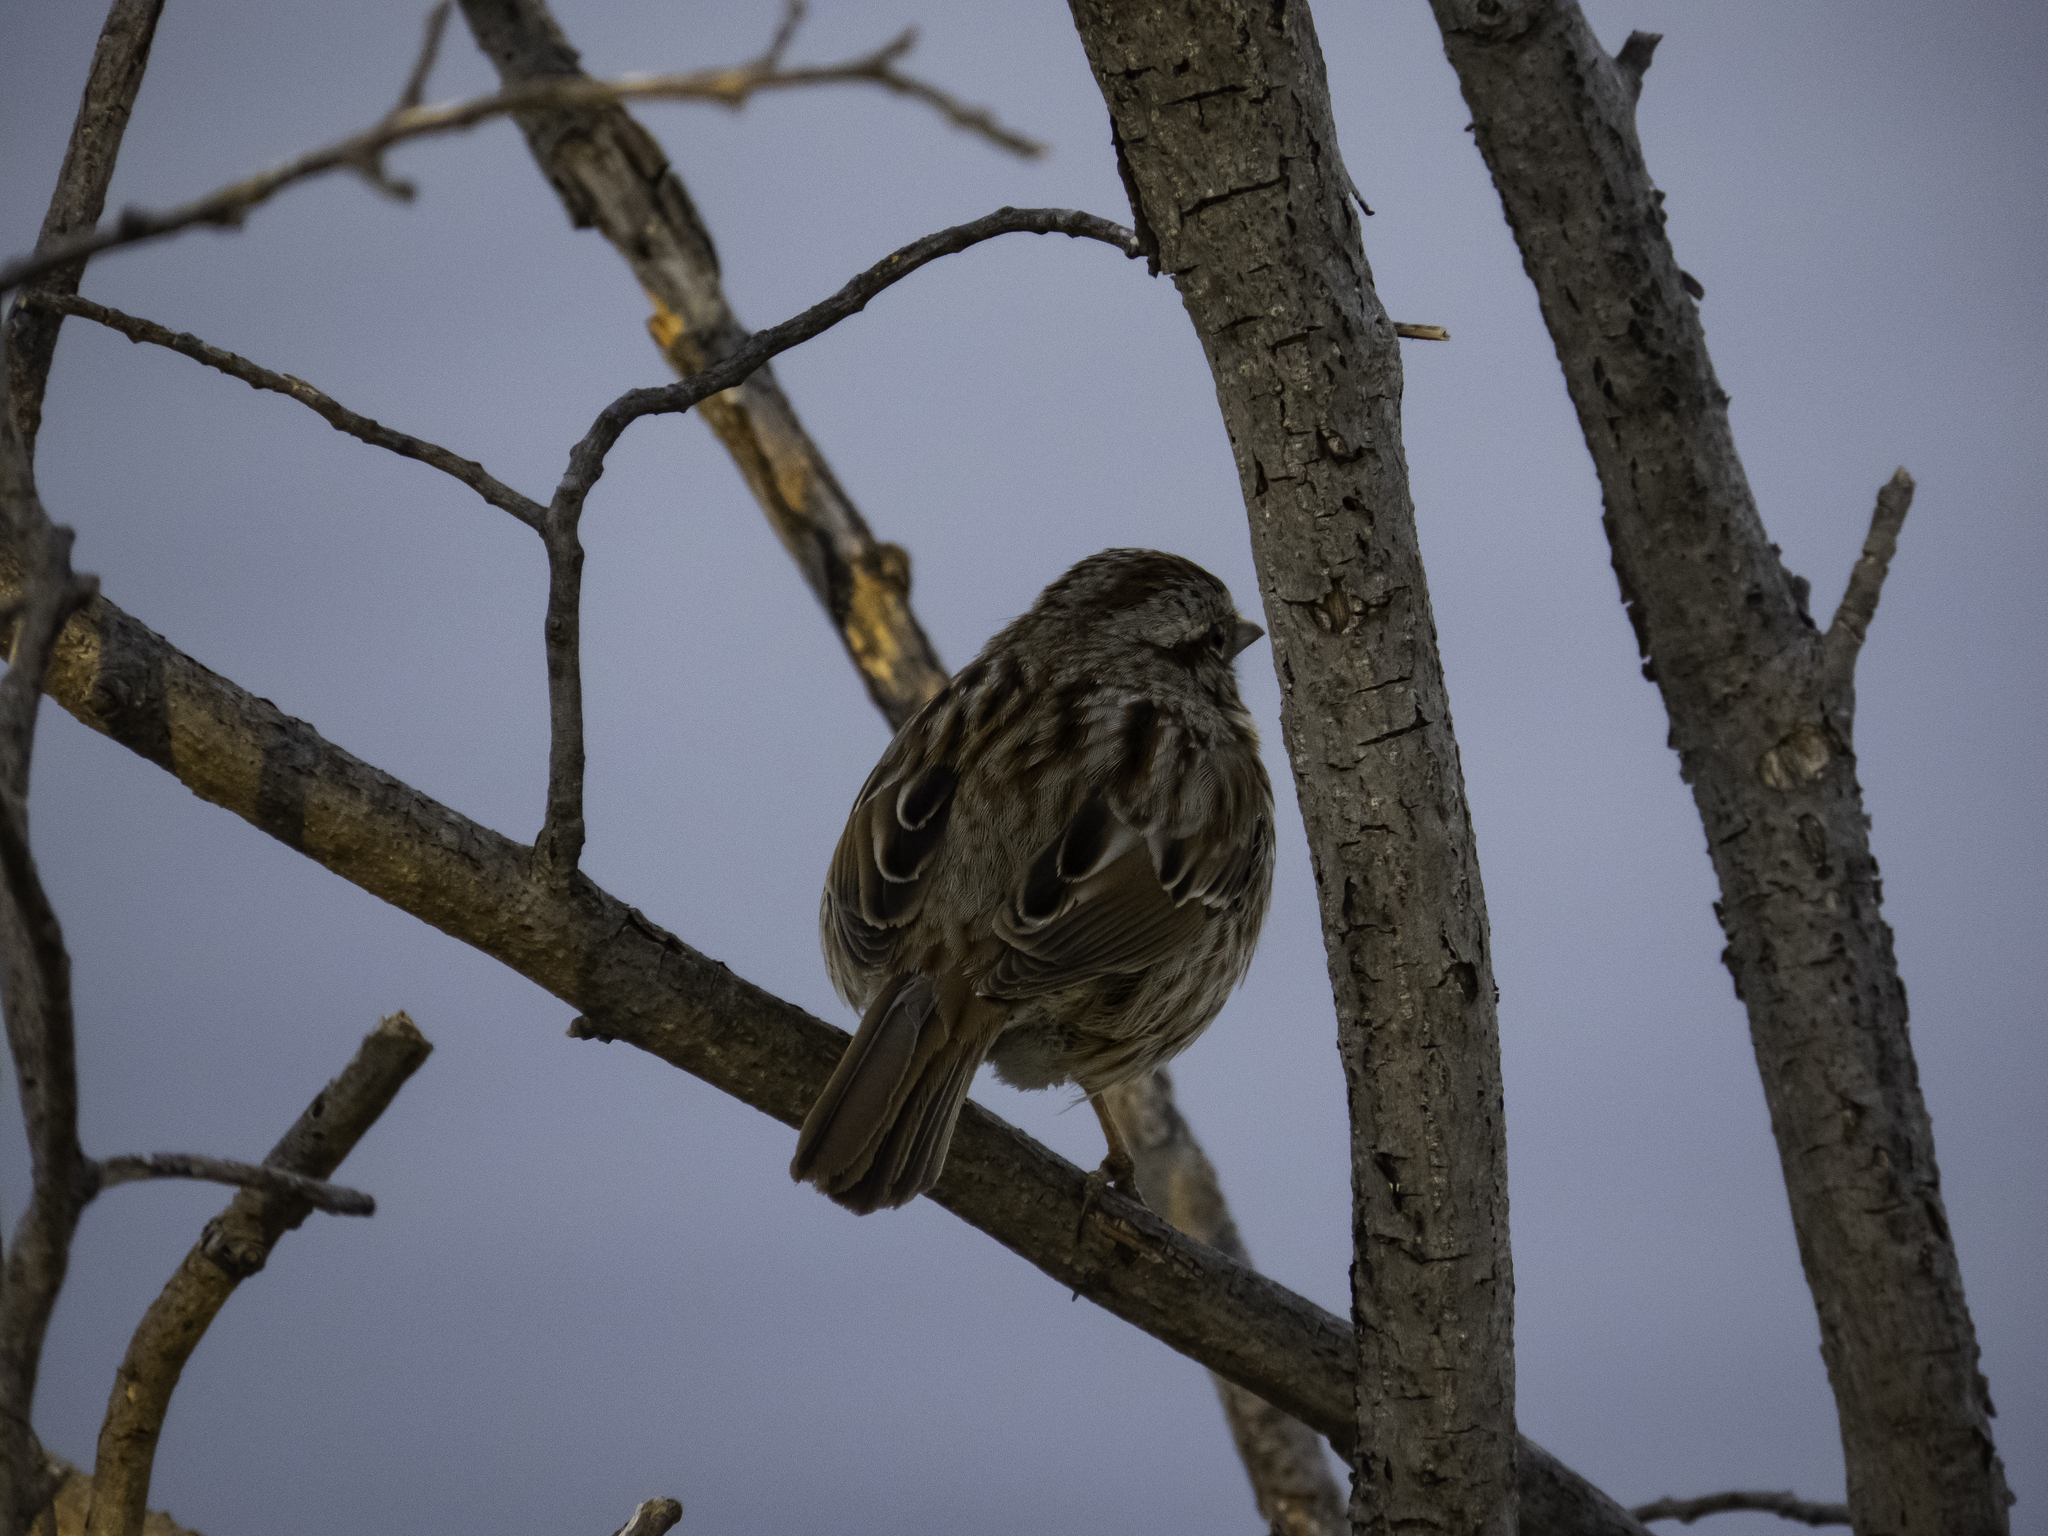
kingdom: Animalia
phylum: Chordata
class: Aves
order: Passeriformes
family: Passerellidae
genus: Melospiza
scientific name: Melospiza melodia
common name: Song sparrow
